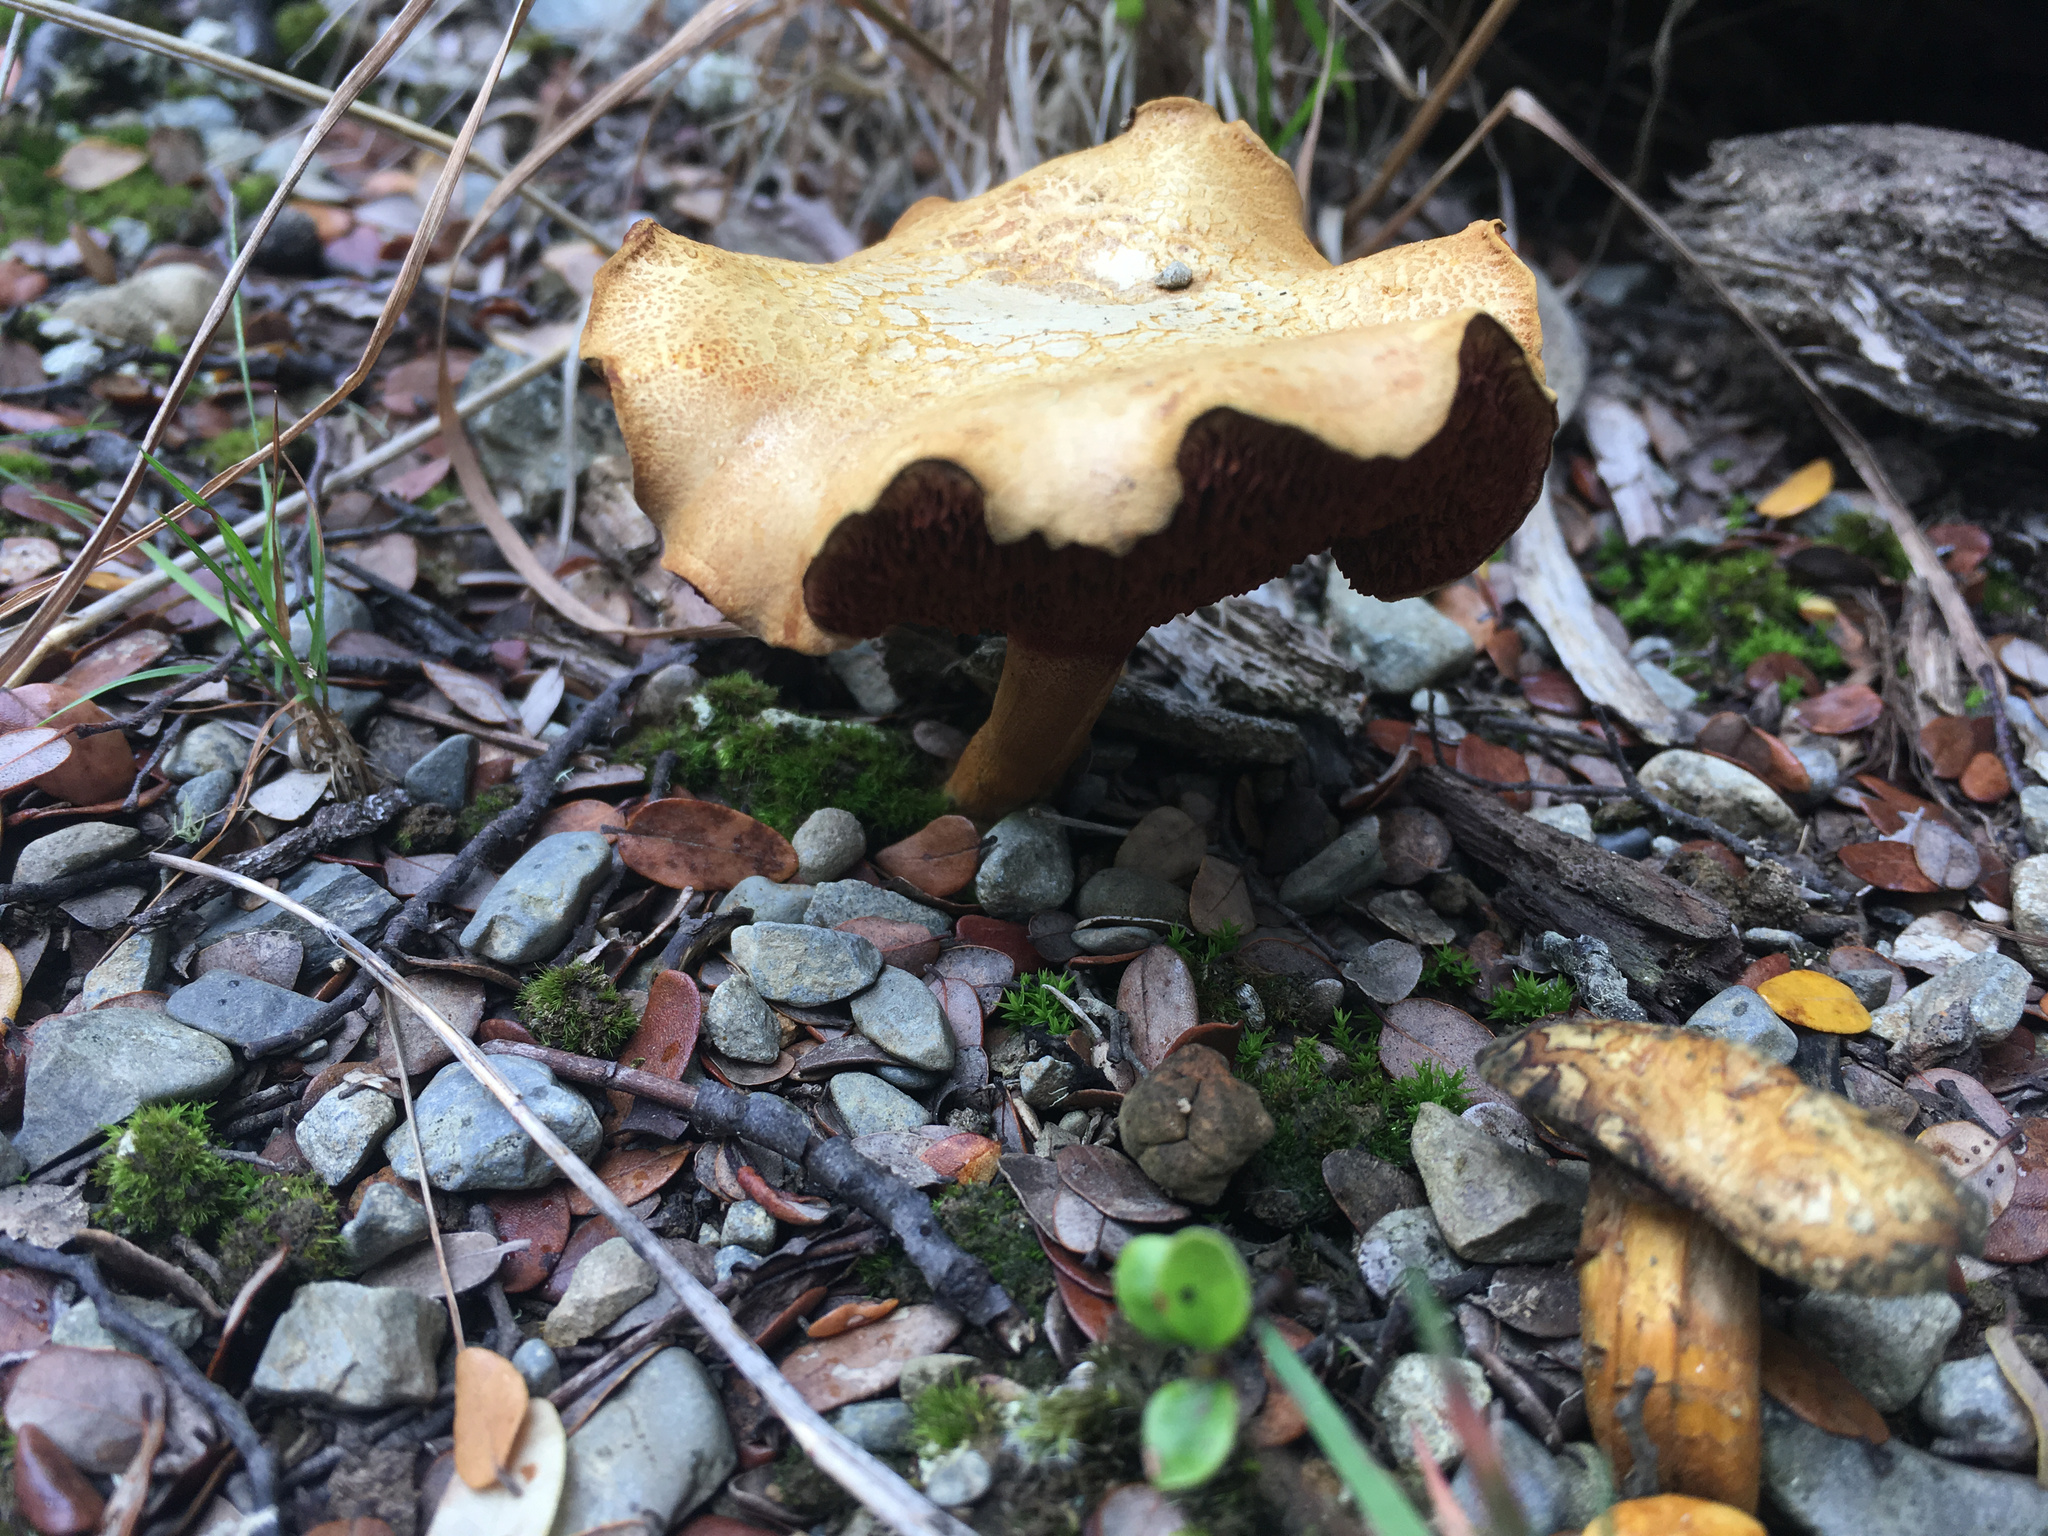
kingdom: Fungi
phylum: Basidiomycota
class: Agaricomycetes
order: Boletales
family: Boletaceae
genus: Chalciporus
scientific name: Chalciporus piperatus
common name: Peppery bolete
